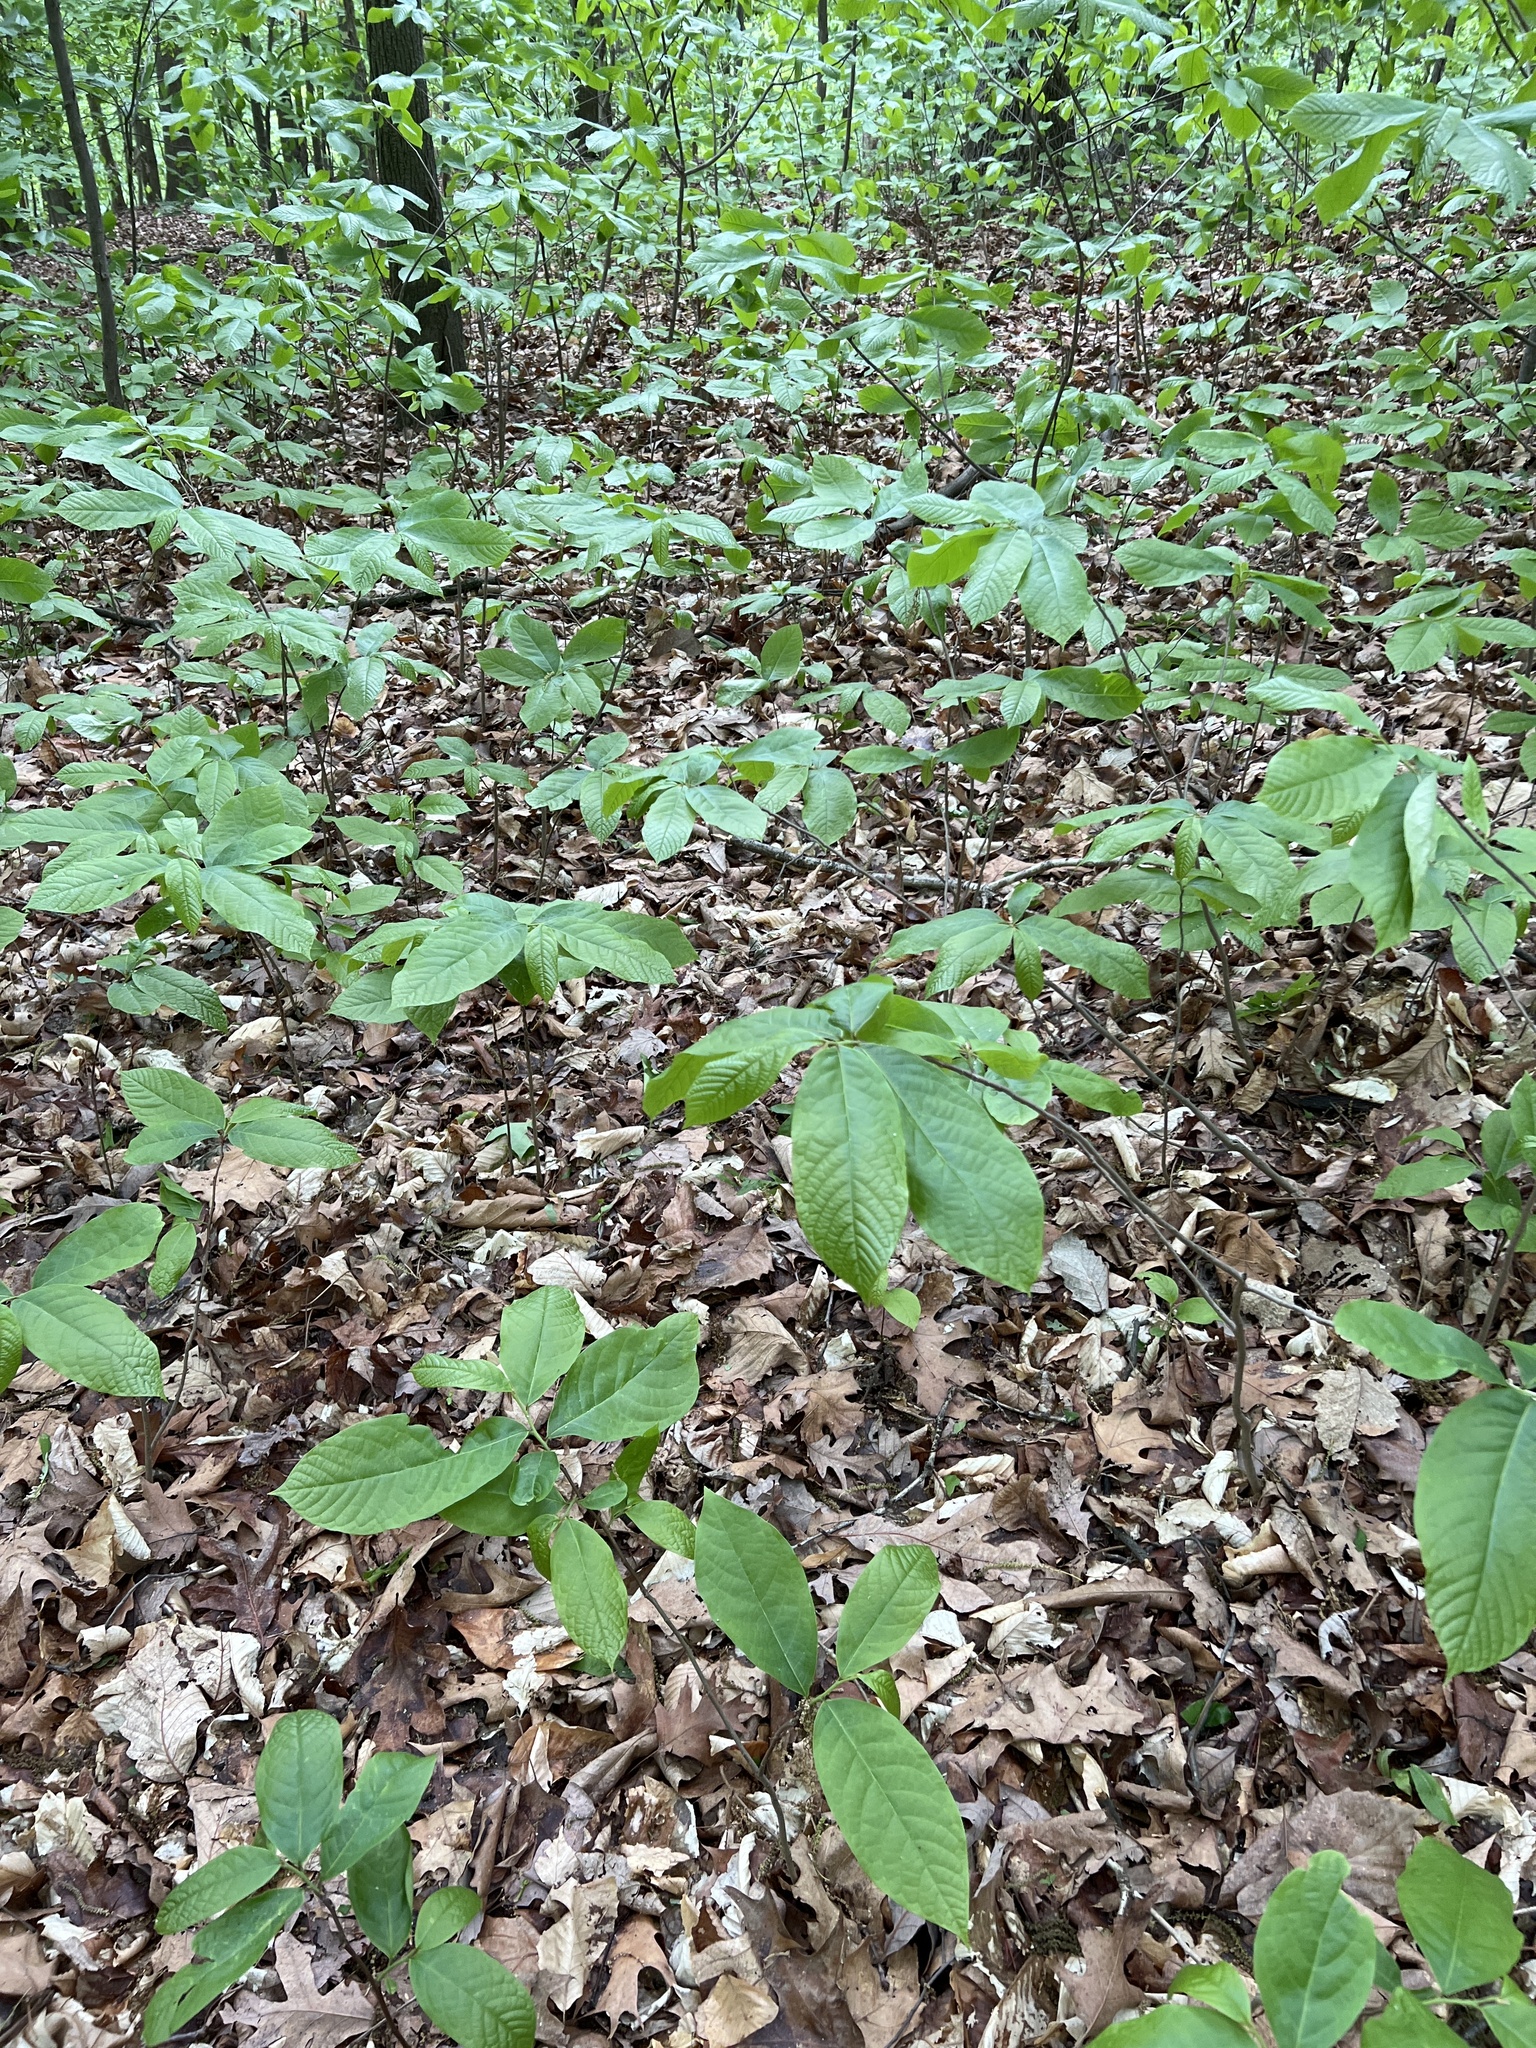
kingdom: Plantae
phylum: Tracheophyta
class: Magnoliopsida
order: Magnoliales
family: Annonaceae
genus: Asimina
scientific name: Asimina triloba
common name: Dog-banana
